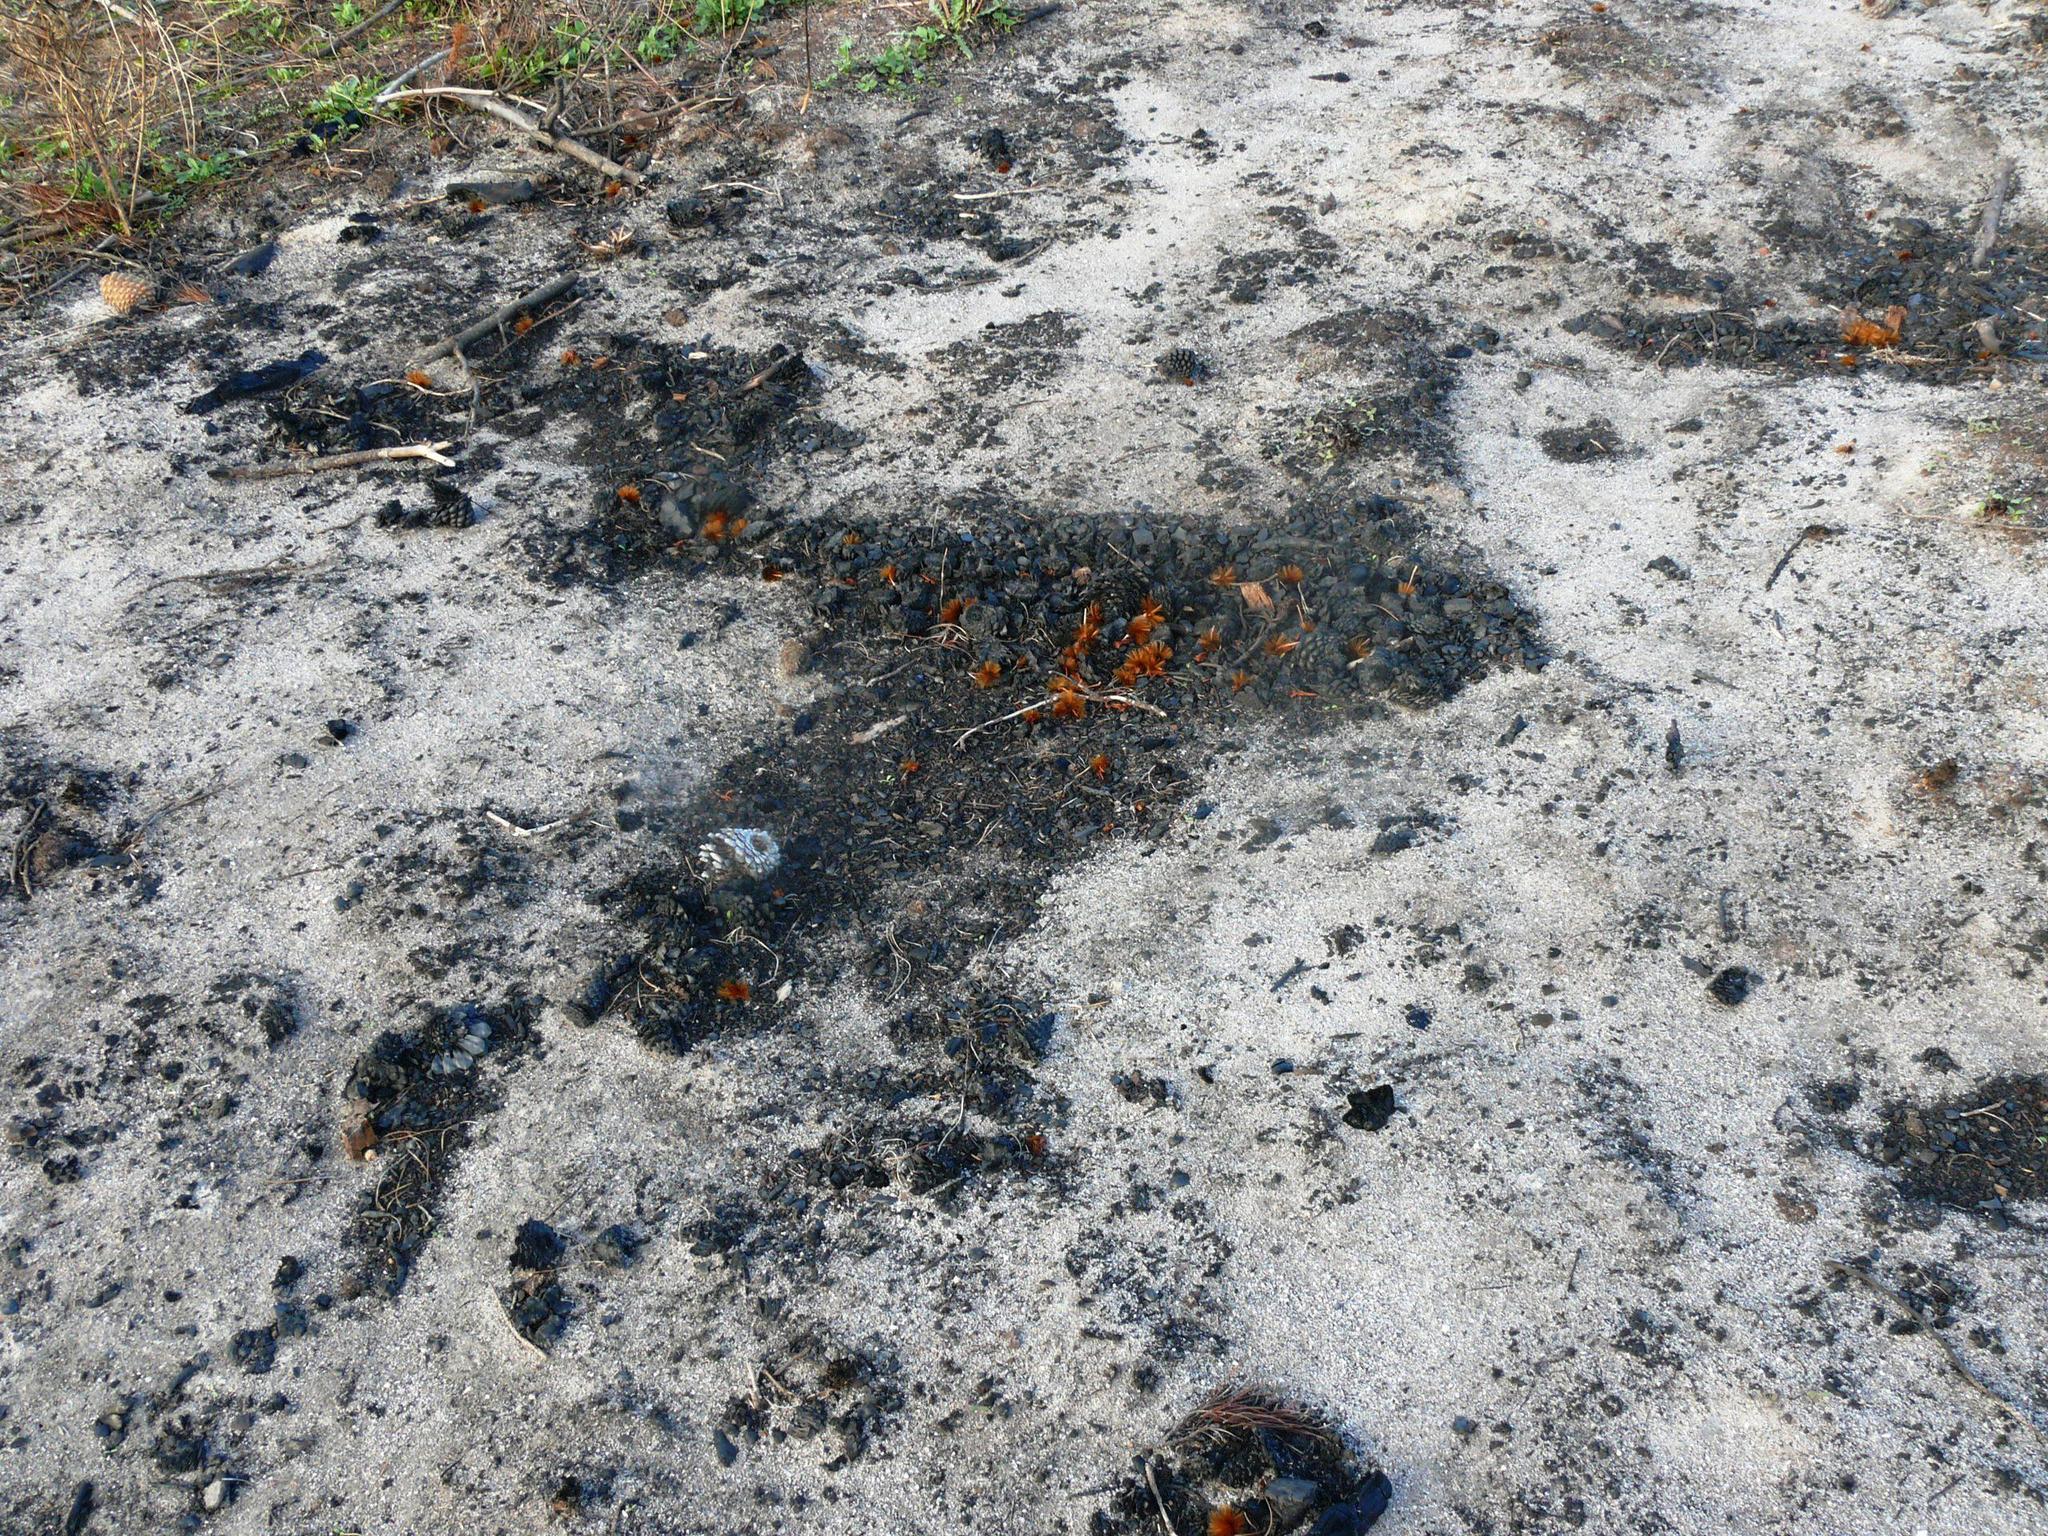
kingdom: Plantae
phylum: Tracheophyta
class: Magnoliopsida
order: Proteales
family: Proteaceae
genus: Protea
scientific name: Protea repens
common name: Sugarbush
